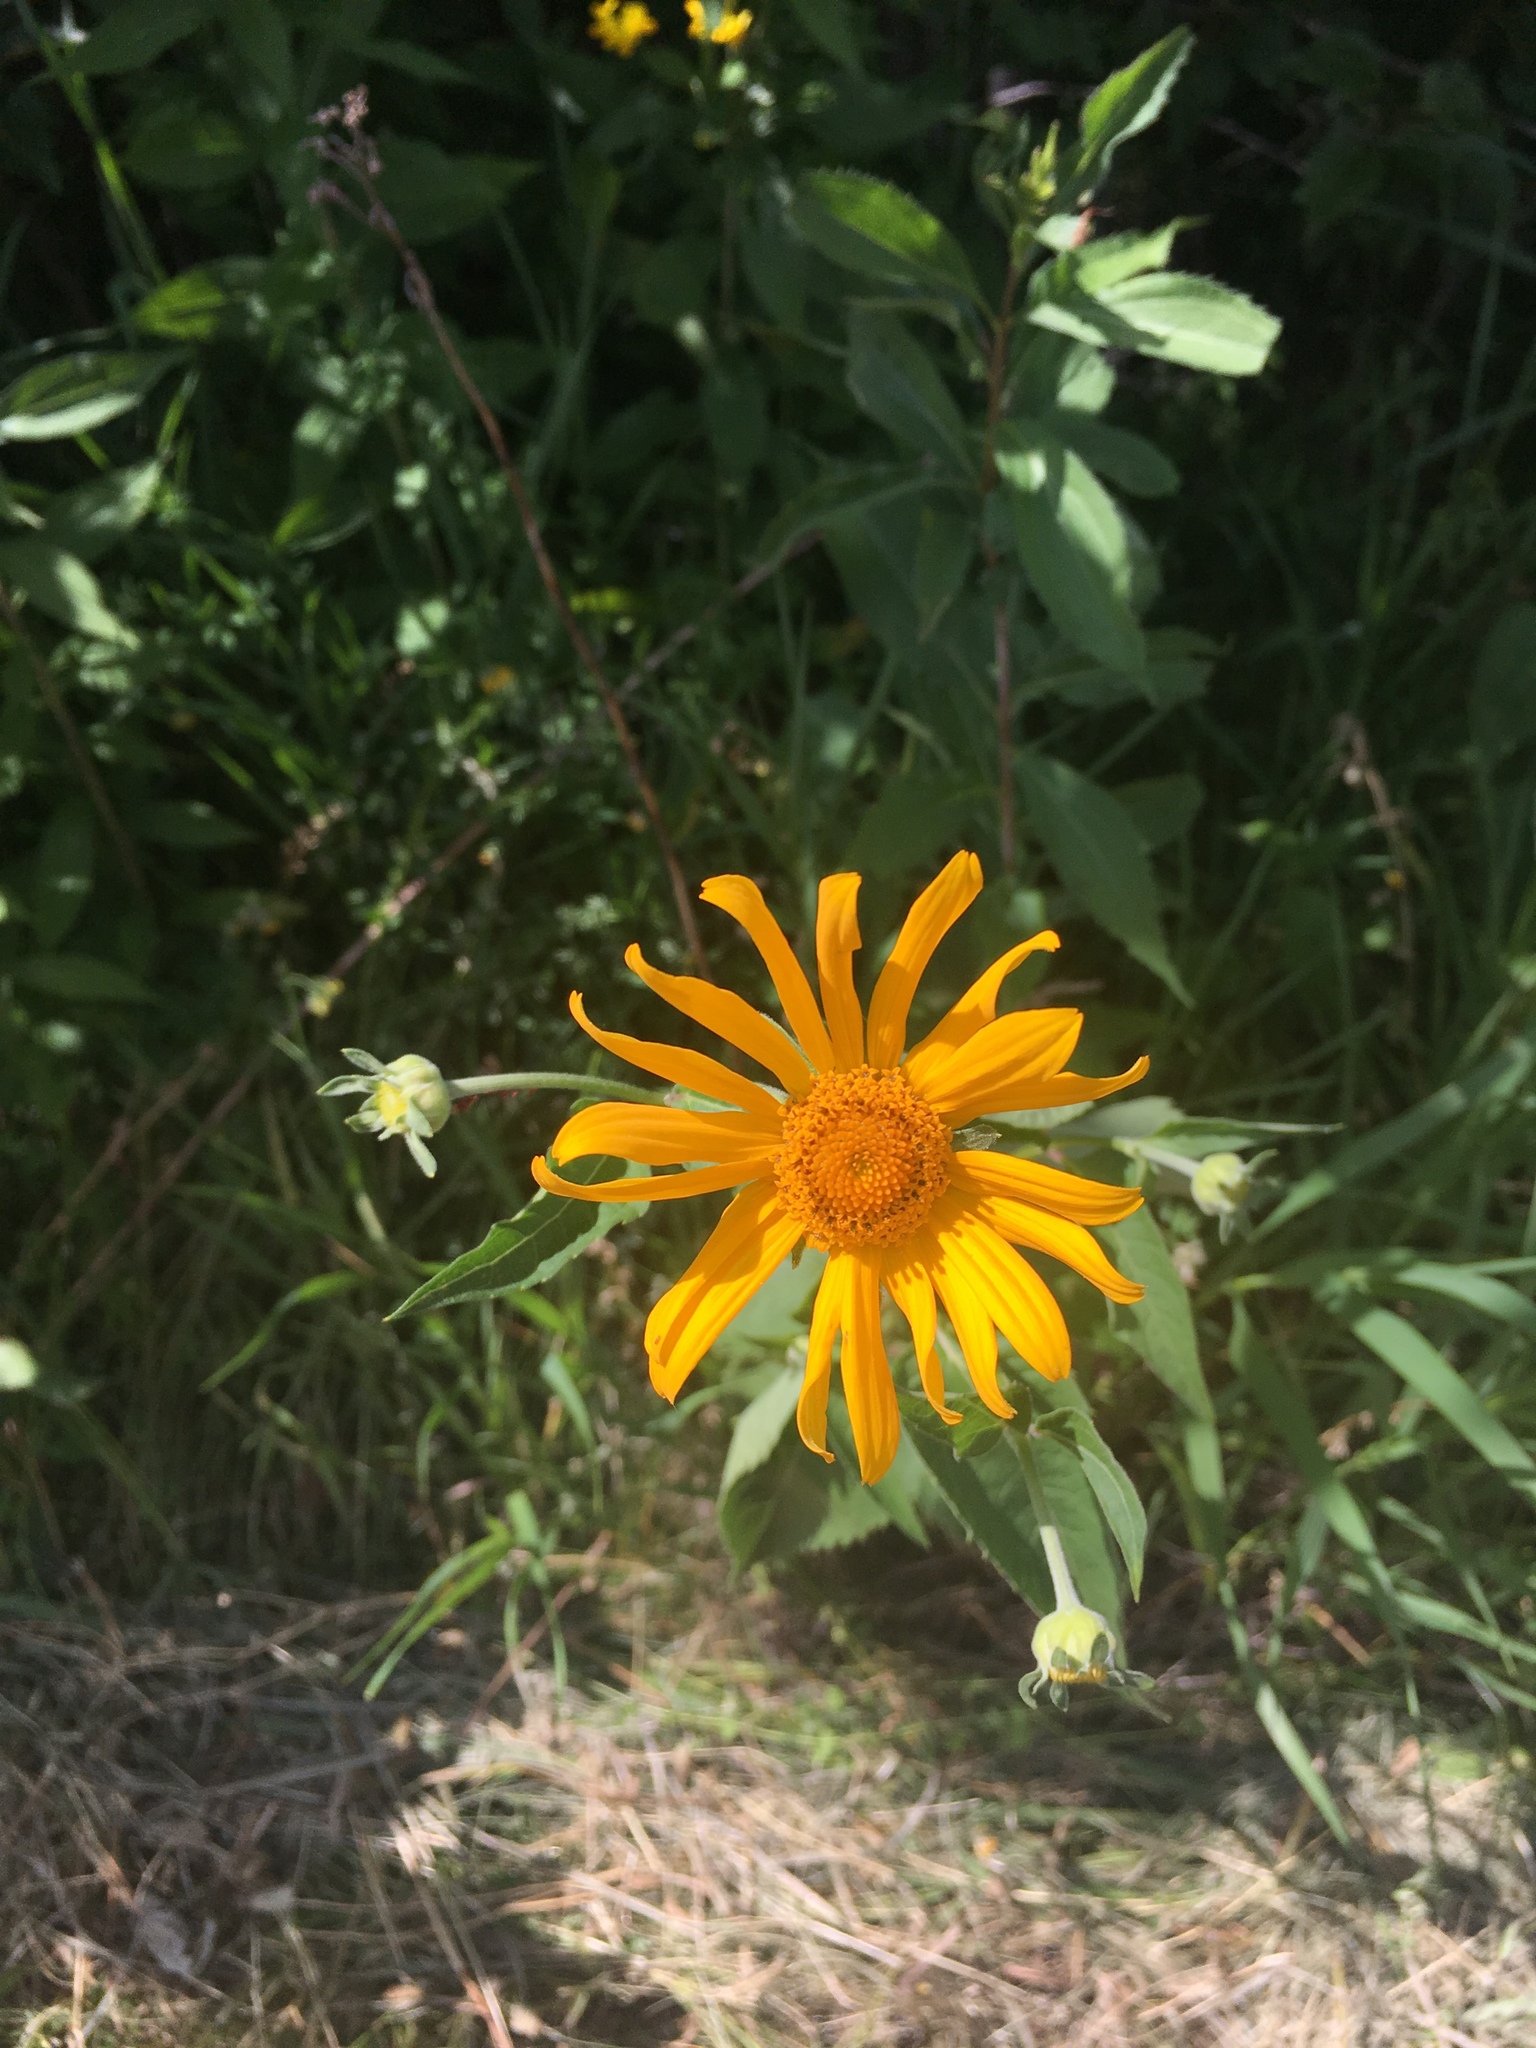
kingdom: Plantae
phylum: Tracheophyta
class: Magnoliopsida
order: Asterales
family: Asteraceae
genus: Heliopsis
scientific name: Heliopsis helianthoides
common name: False sunflower
